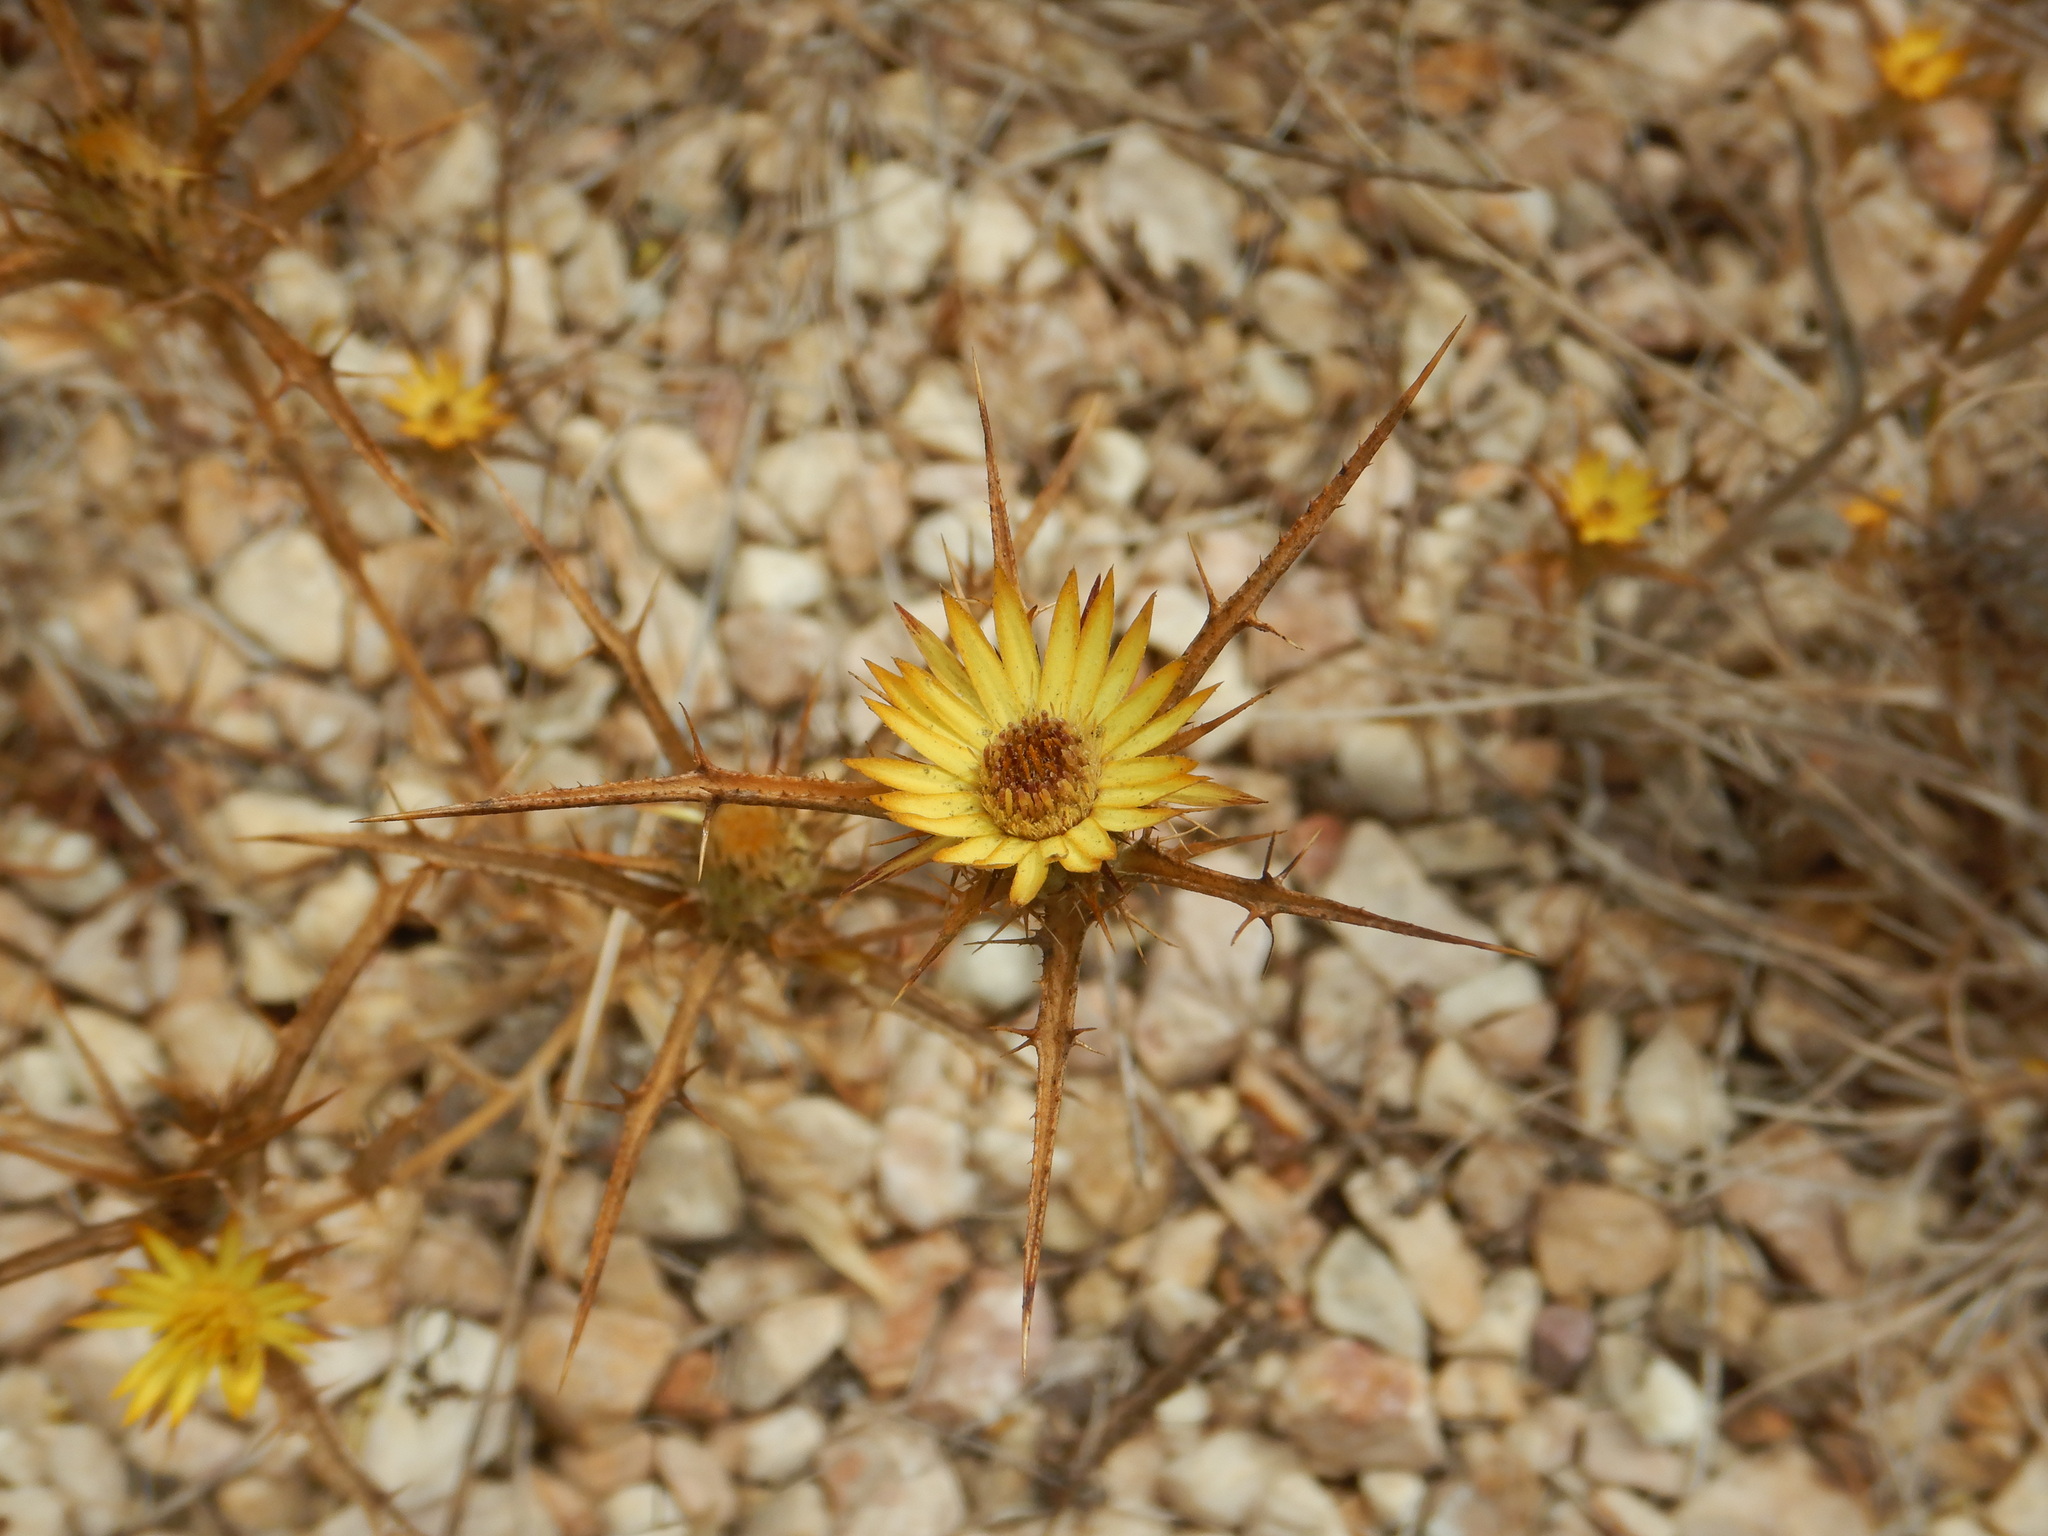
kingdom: Plantae
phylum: Tracheophyta
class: Magnoliopsida
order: Asterales
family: Asteraceae
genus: Carlina
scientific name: Carlina racemosa
